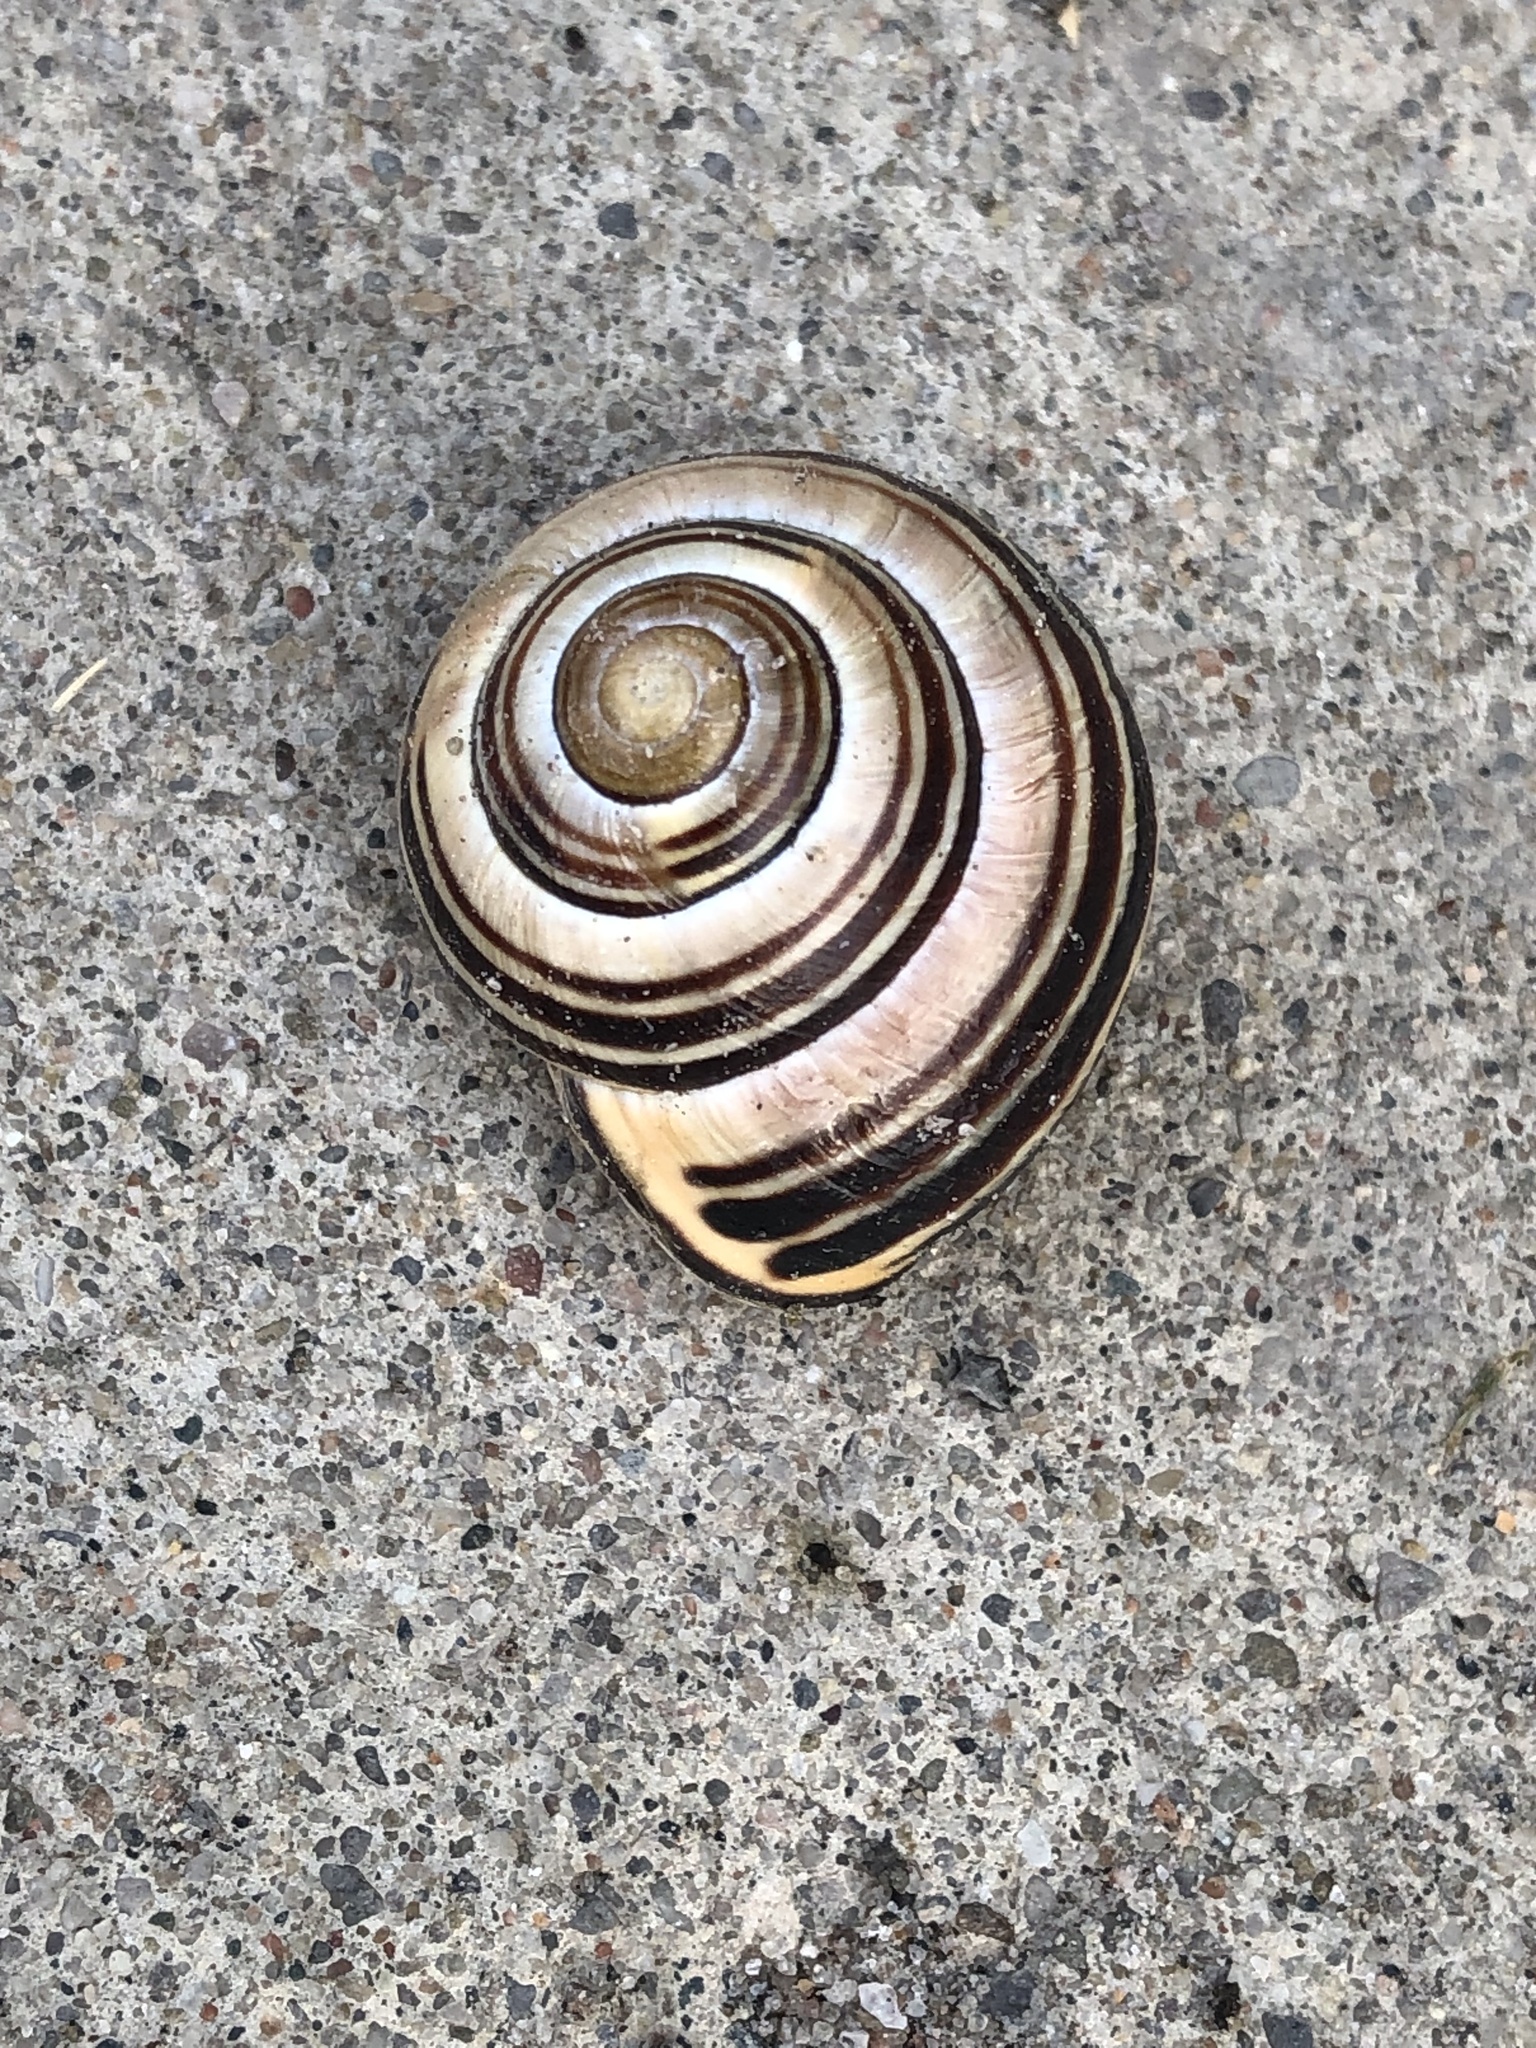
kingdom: Animalia
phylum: Mollusca
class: Gastropoda
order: Stylommatophora
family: Helicidae
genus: Cepaea
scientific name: Cepaea nemoralis
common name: Grovesnail
